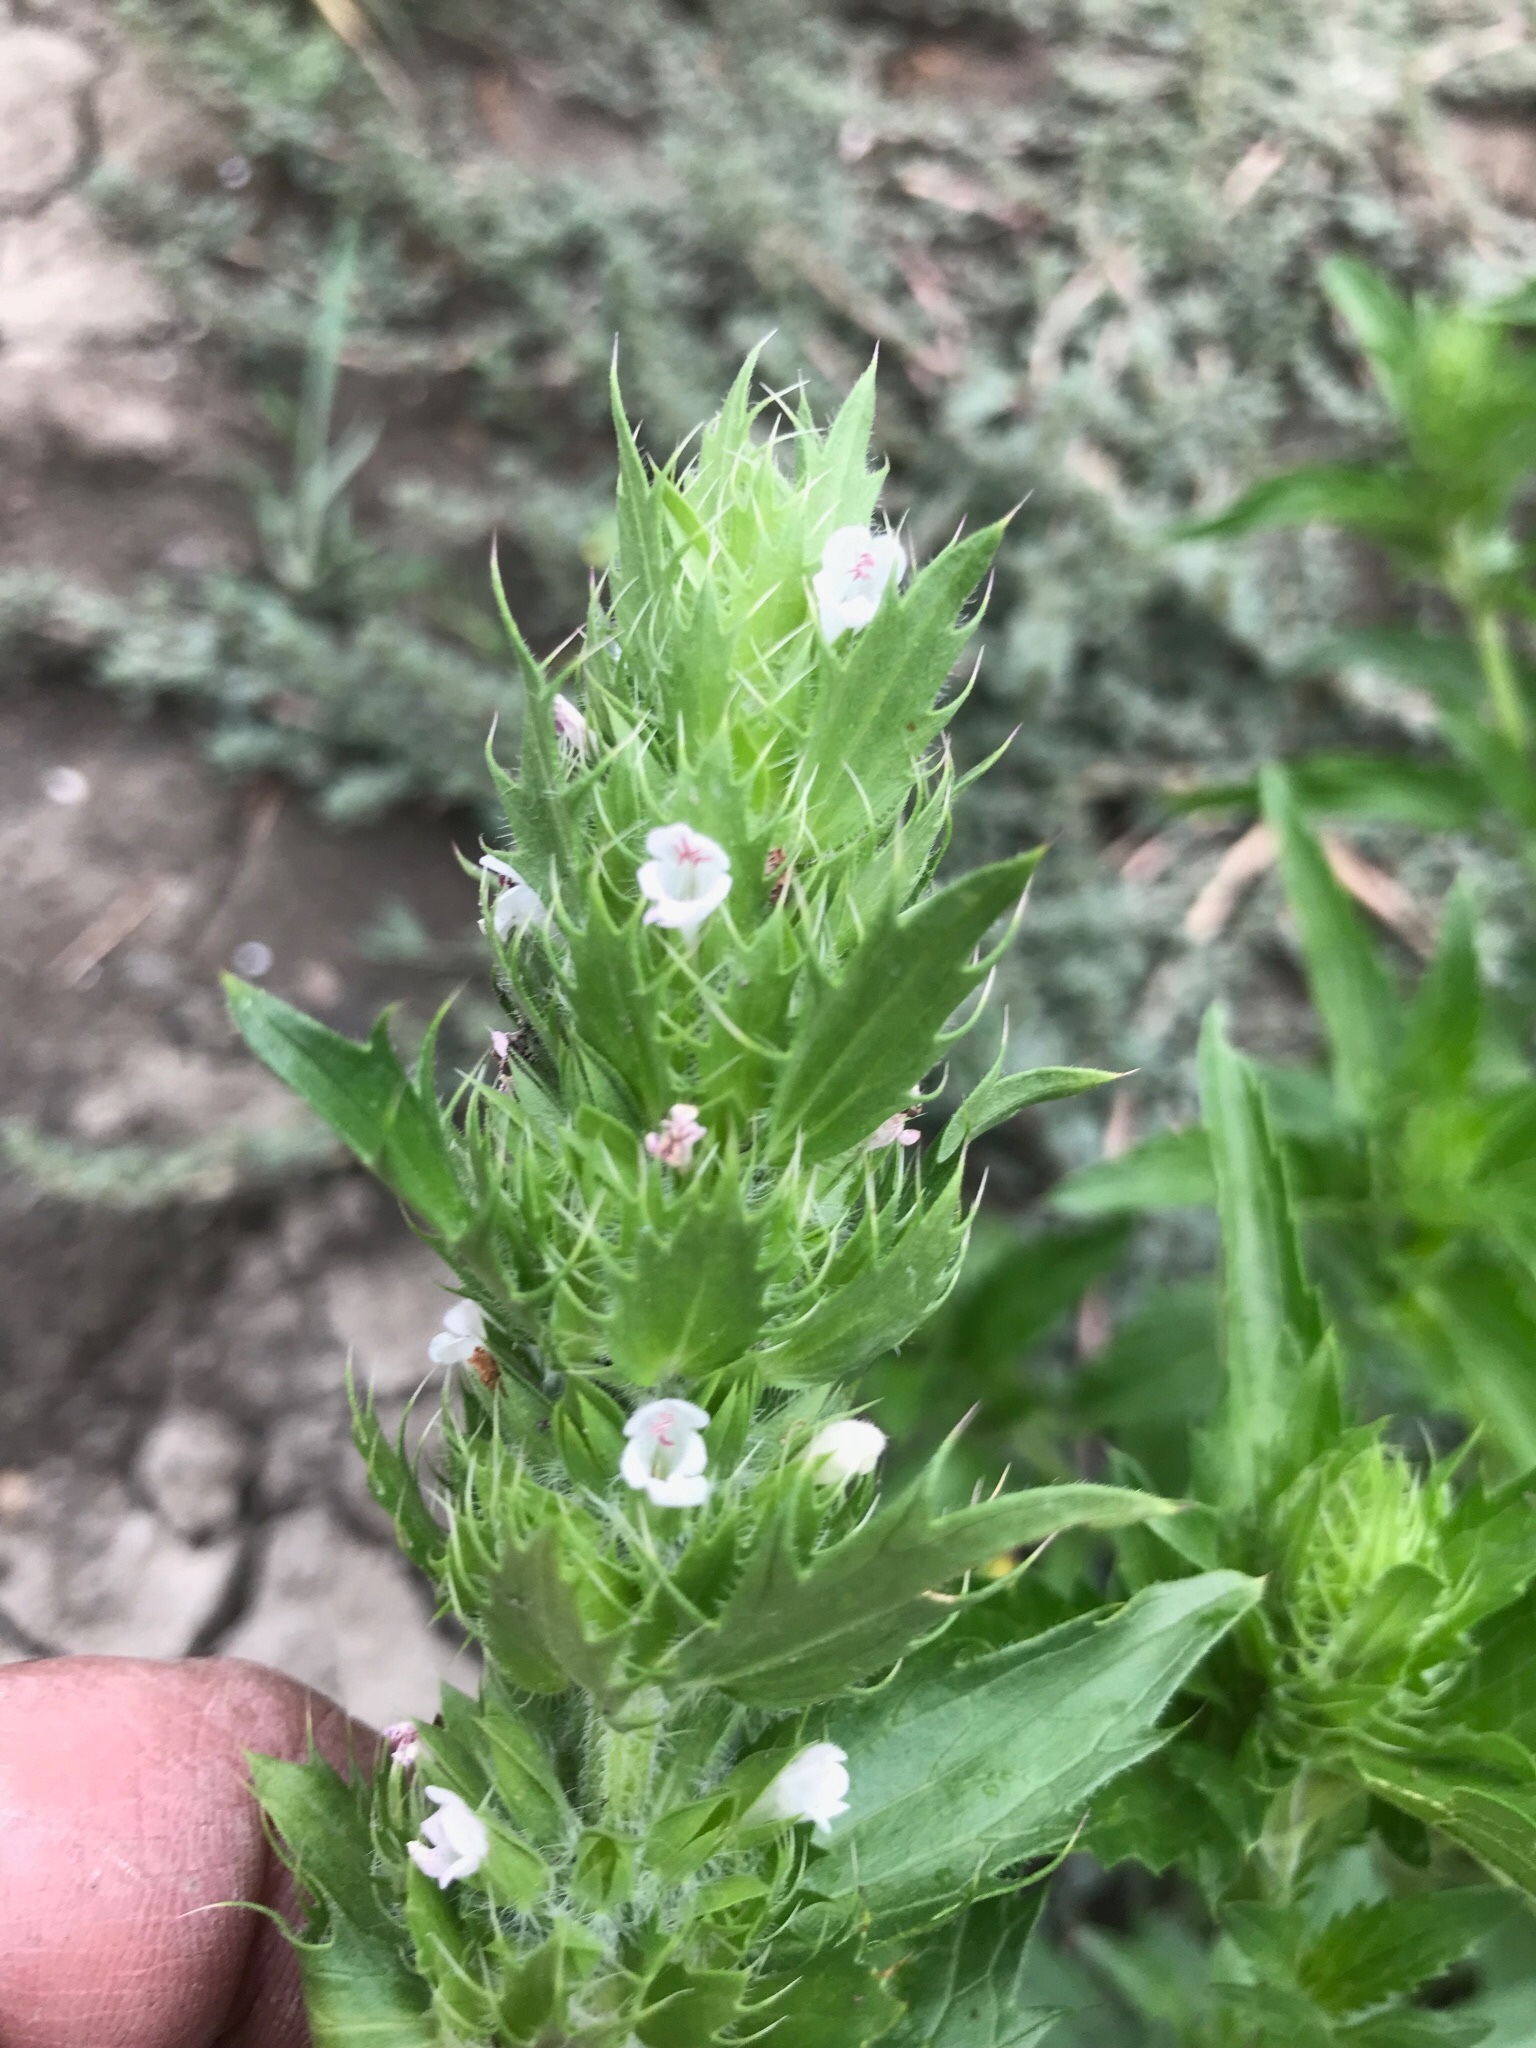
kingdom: Plantae
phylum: Tracheophyta
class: Magnoliopsida
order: Lamiales
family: Lamiaceae
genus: Dracocephalum
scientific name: Dracocephalum parviflorum
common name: American dragonhead
